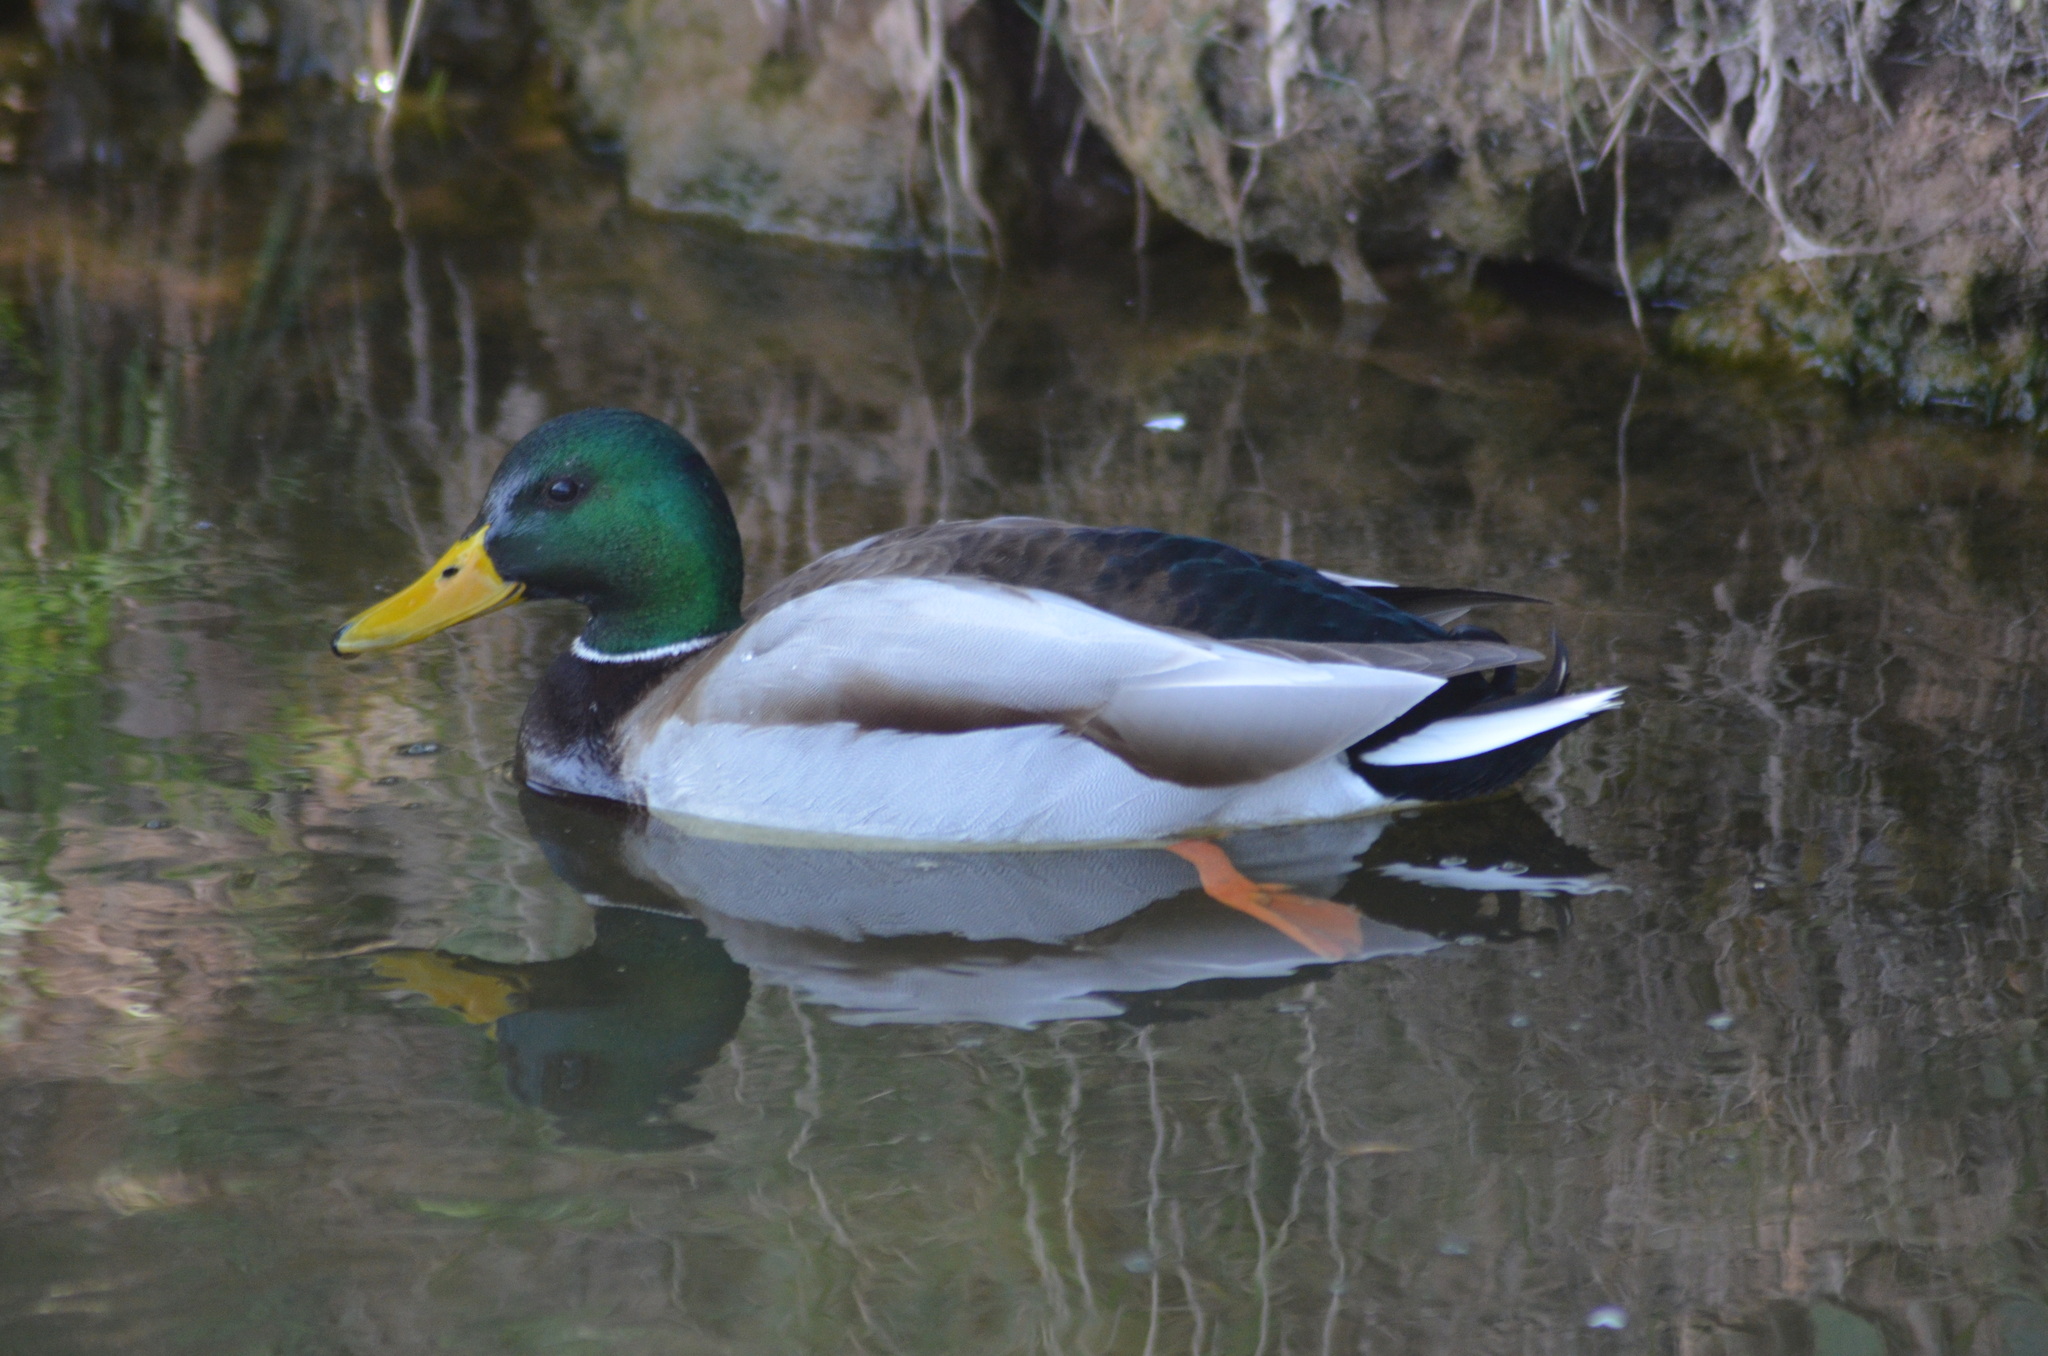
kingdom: Animalia
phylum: Chordata
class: Aves
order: Anseriformes
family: Anatidae
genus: Anas
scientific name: Anas platyrhynchos
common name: Mallard
